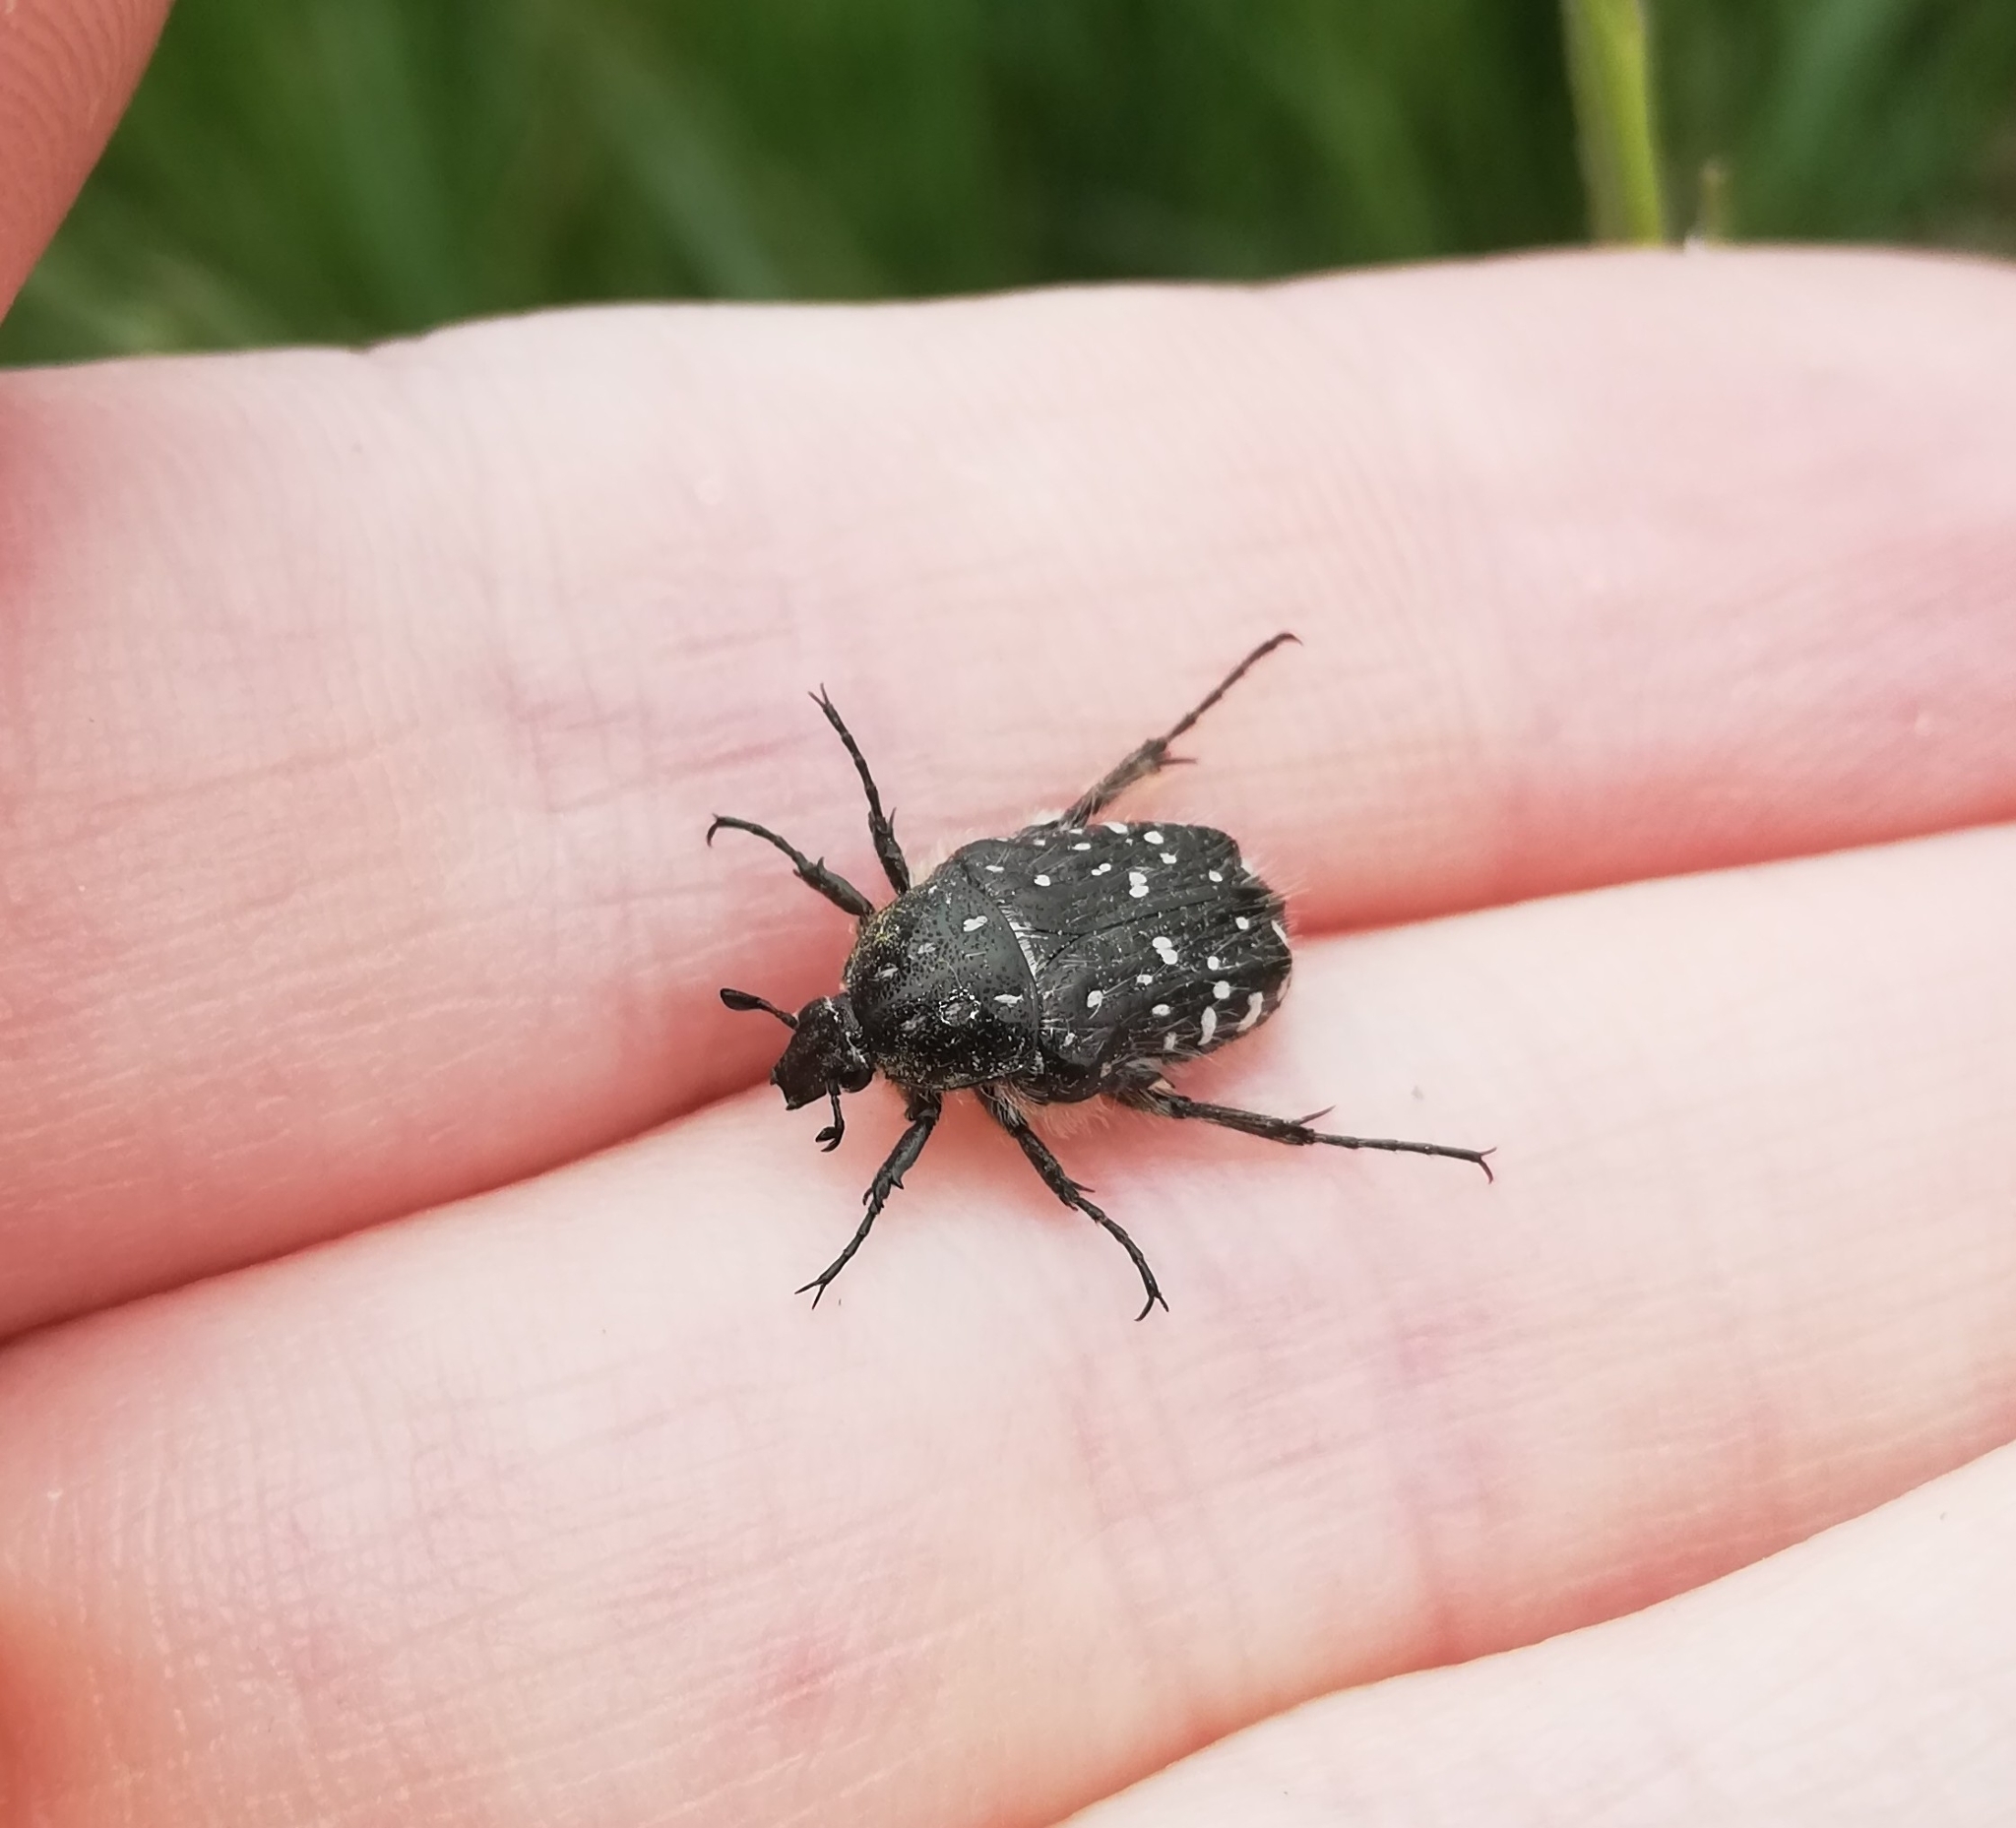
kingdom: Animalia
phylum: Arthropoda
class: Insecta
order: Coleoptera
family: Scarabaeidae
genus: Oxythyrea
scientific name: Oxythyrea funesta
